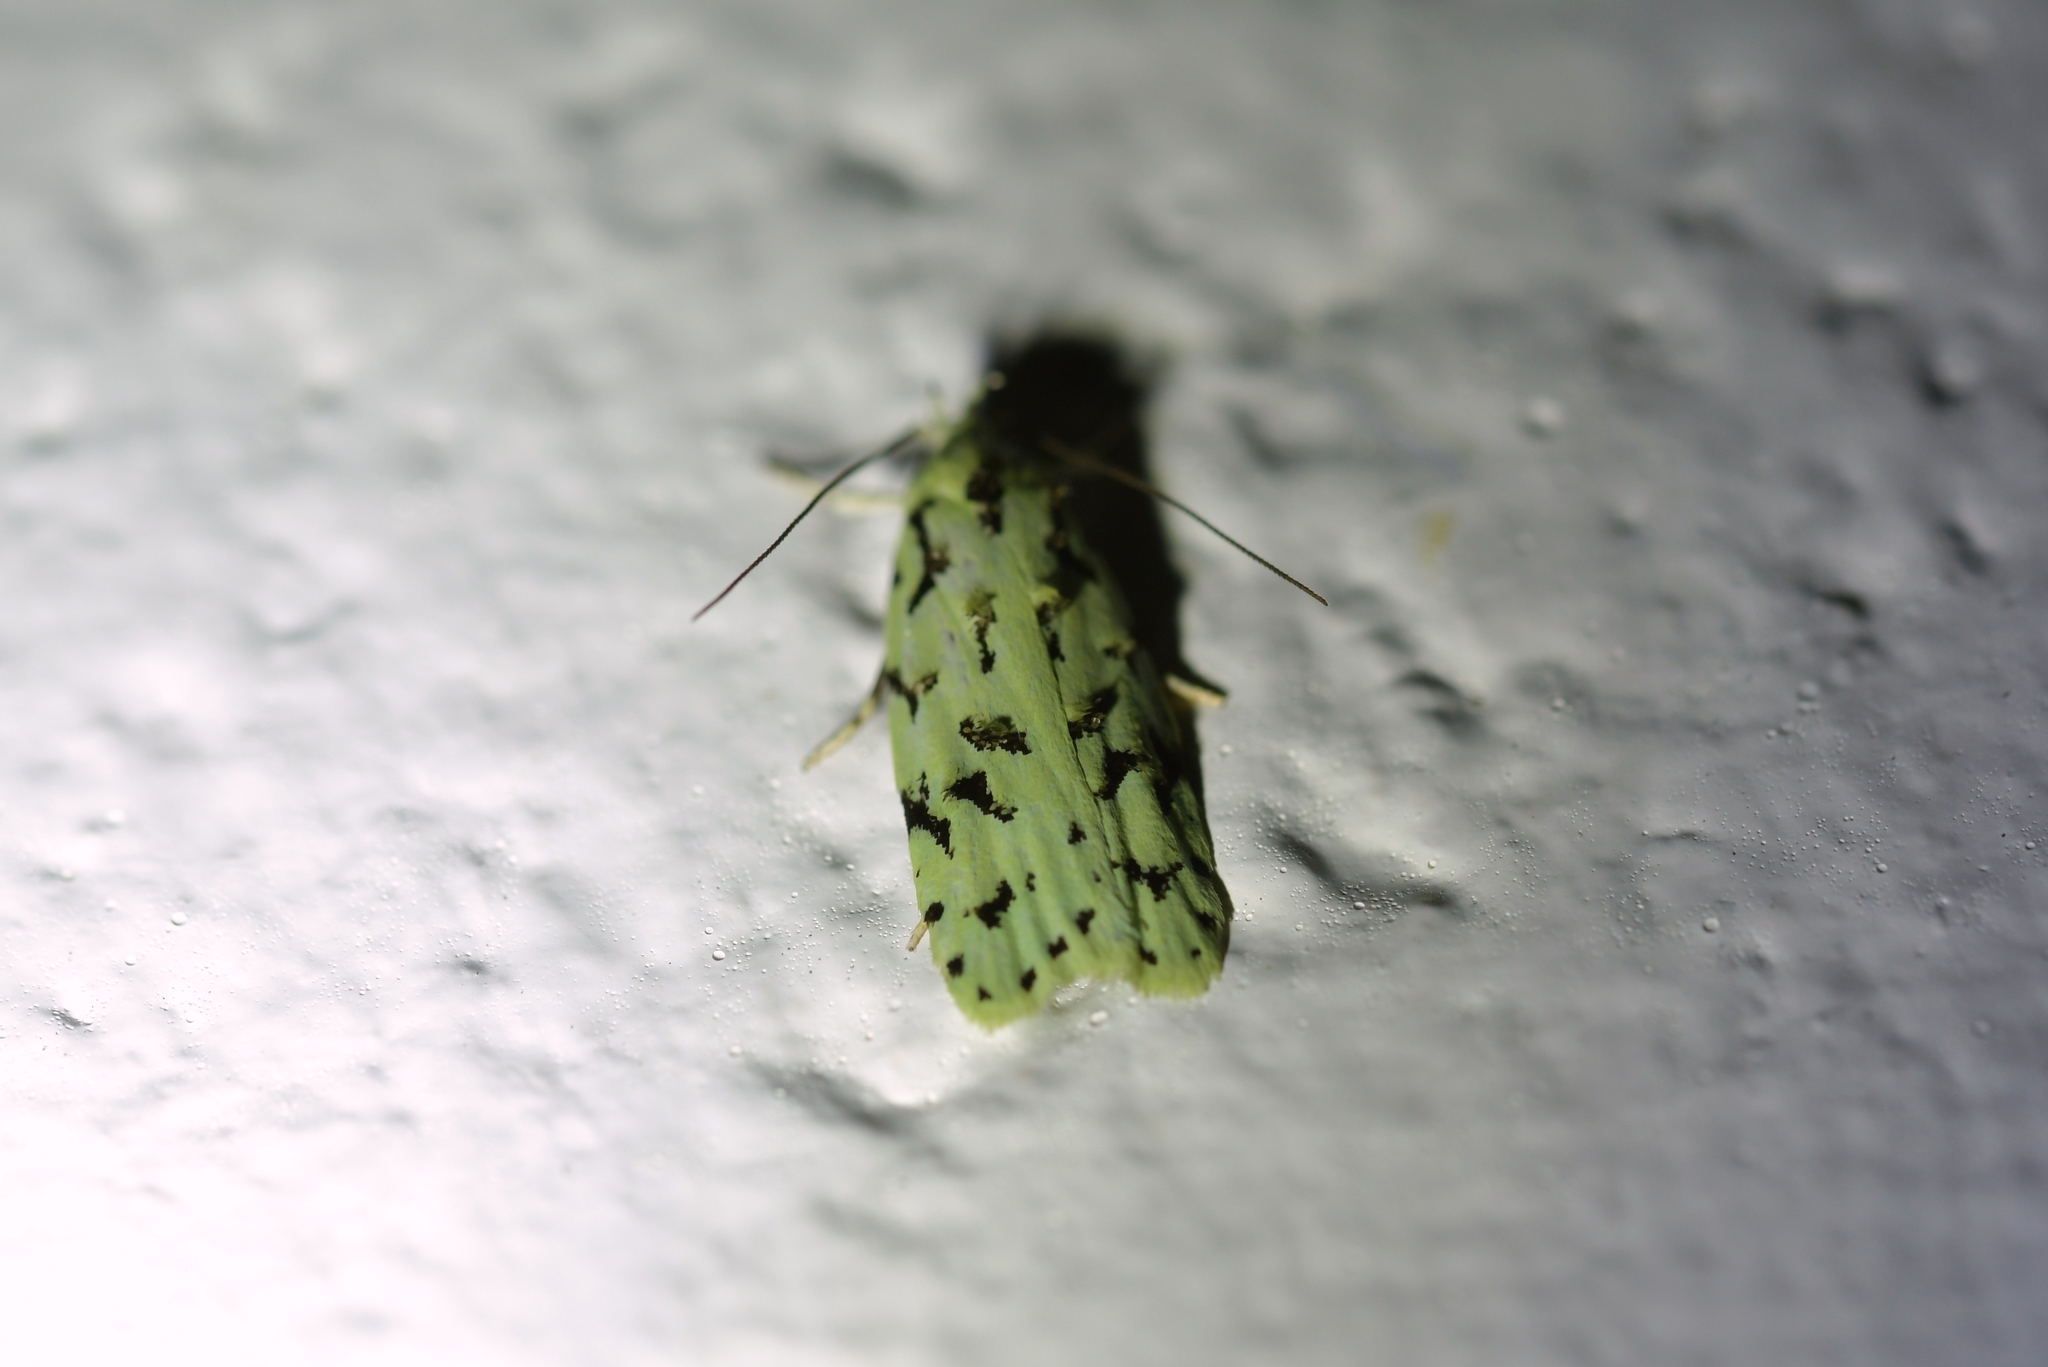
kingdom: Animalia
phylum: Arthropoda
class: Insecta
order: Lepidoptera
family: Oecophoridae
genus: Izatha
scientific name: Izatha huttoni
